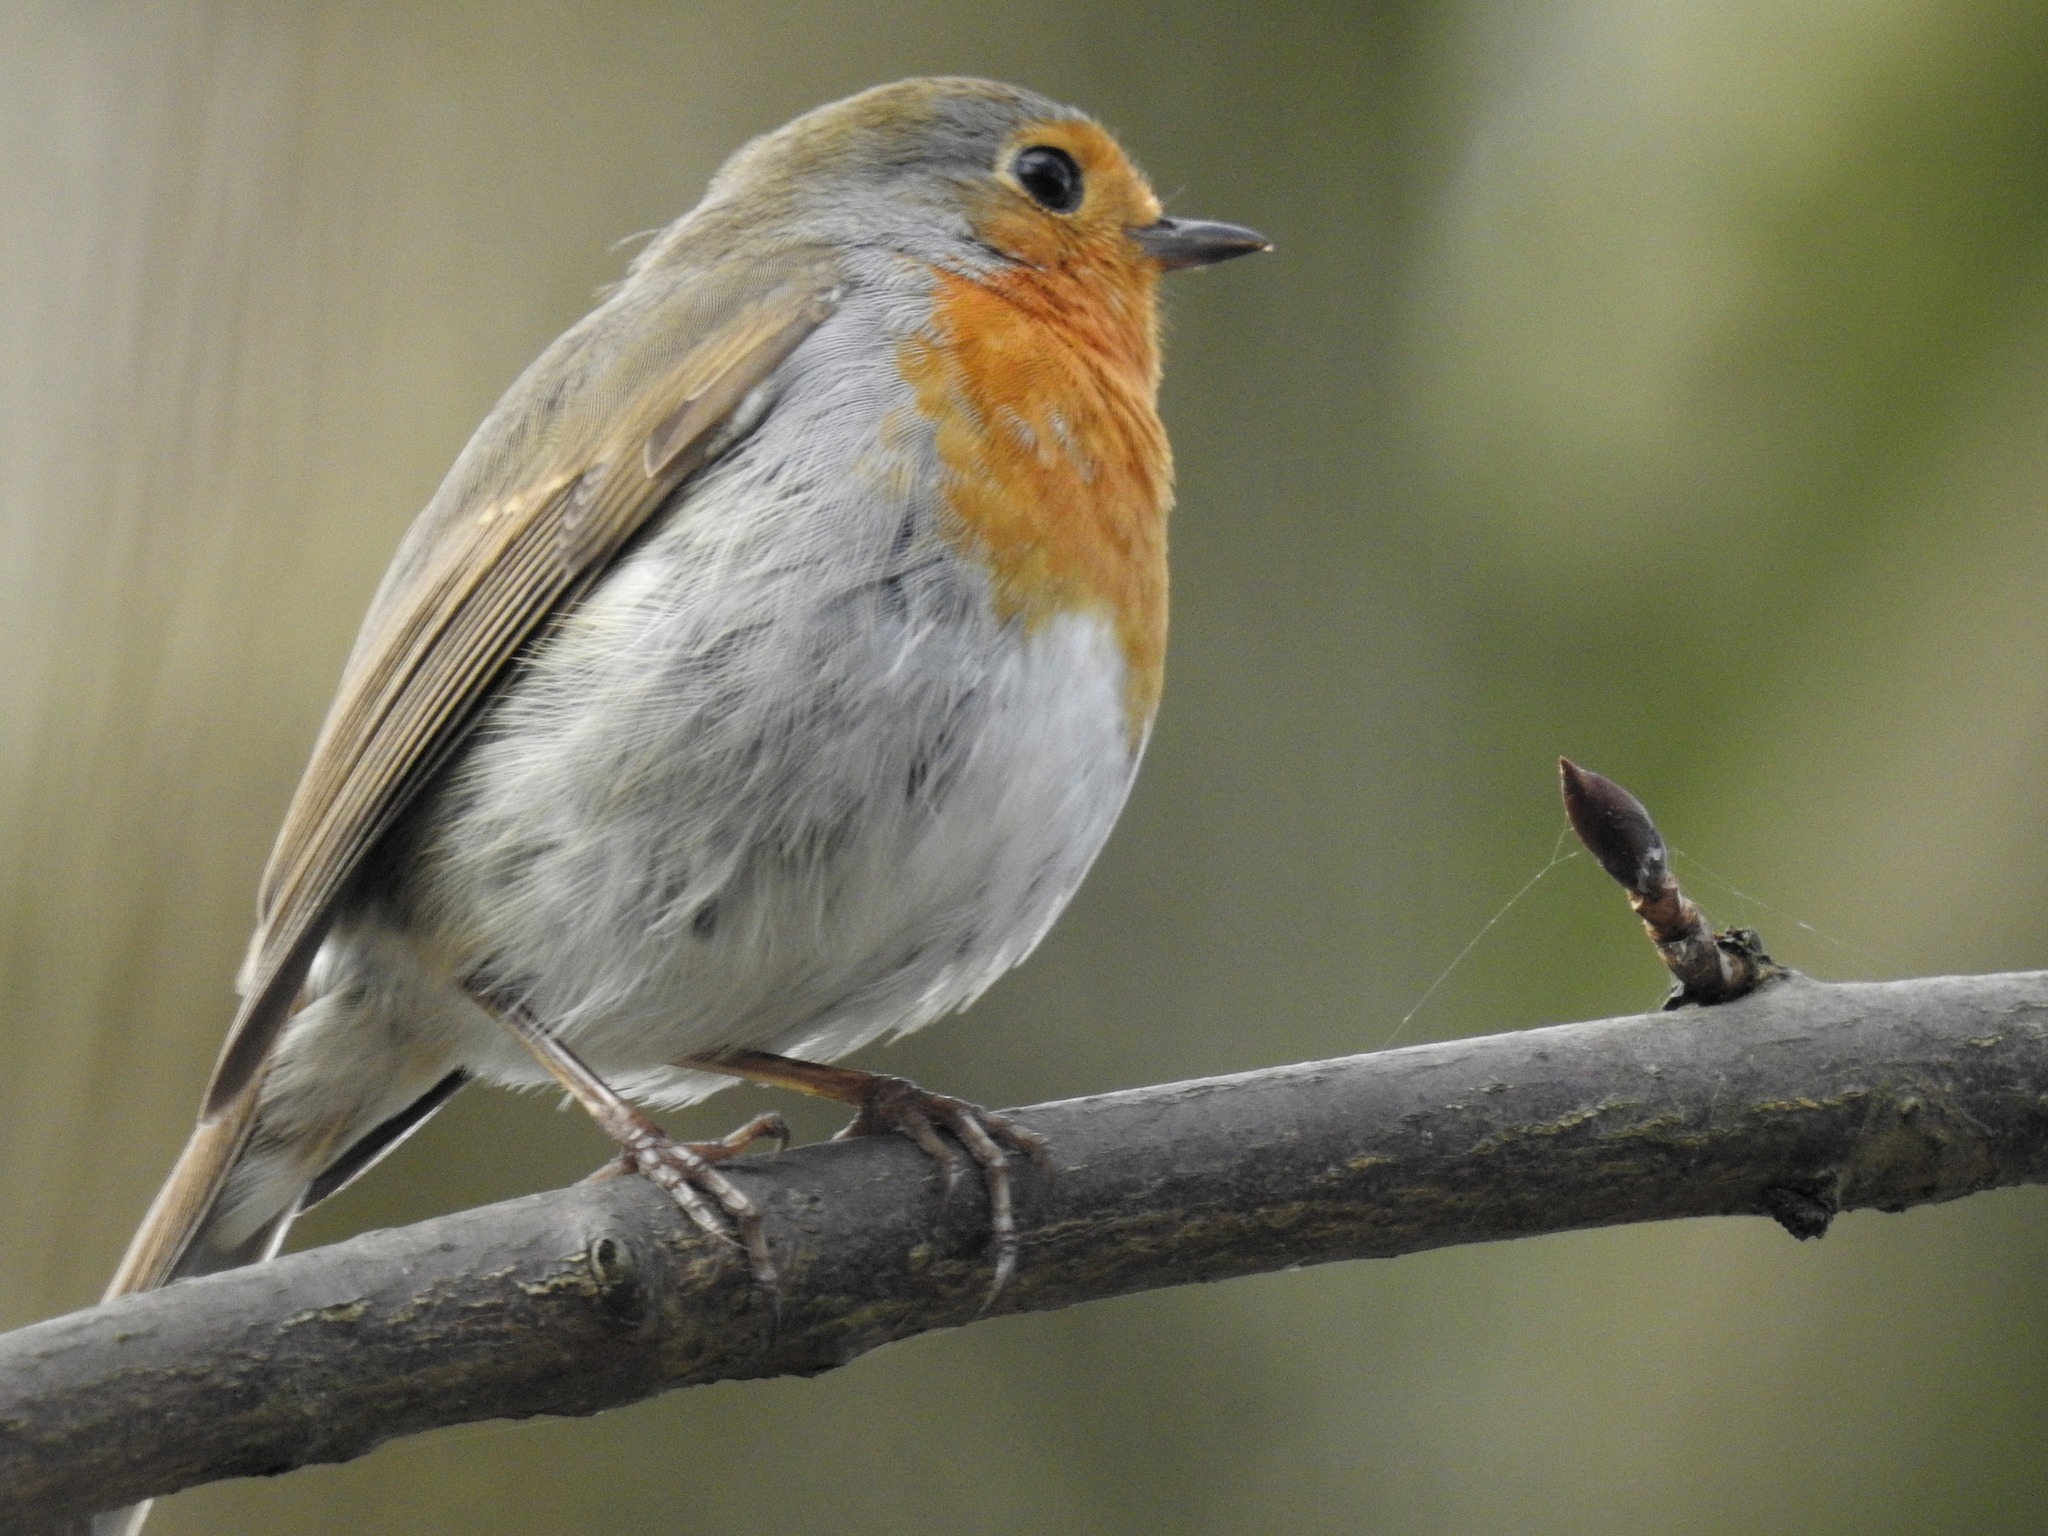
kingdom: Animalia
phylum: Chordata
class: Aves
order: Passeriformes
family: Muscicapidae
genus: Erithacus
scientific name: Erithacus rubecula
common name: European robin
